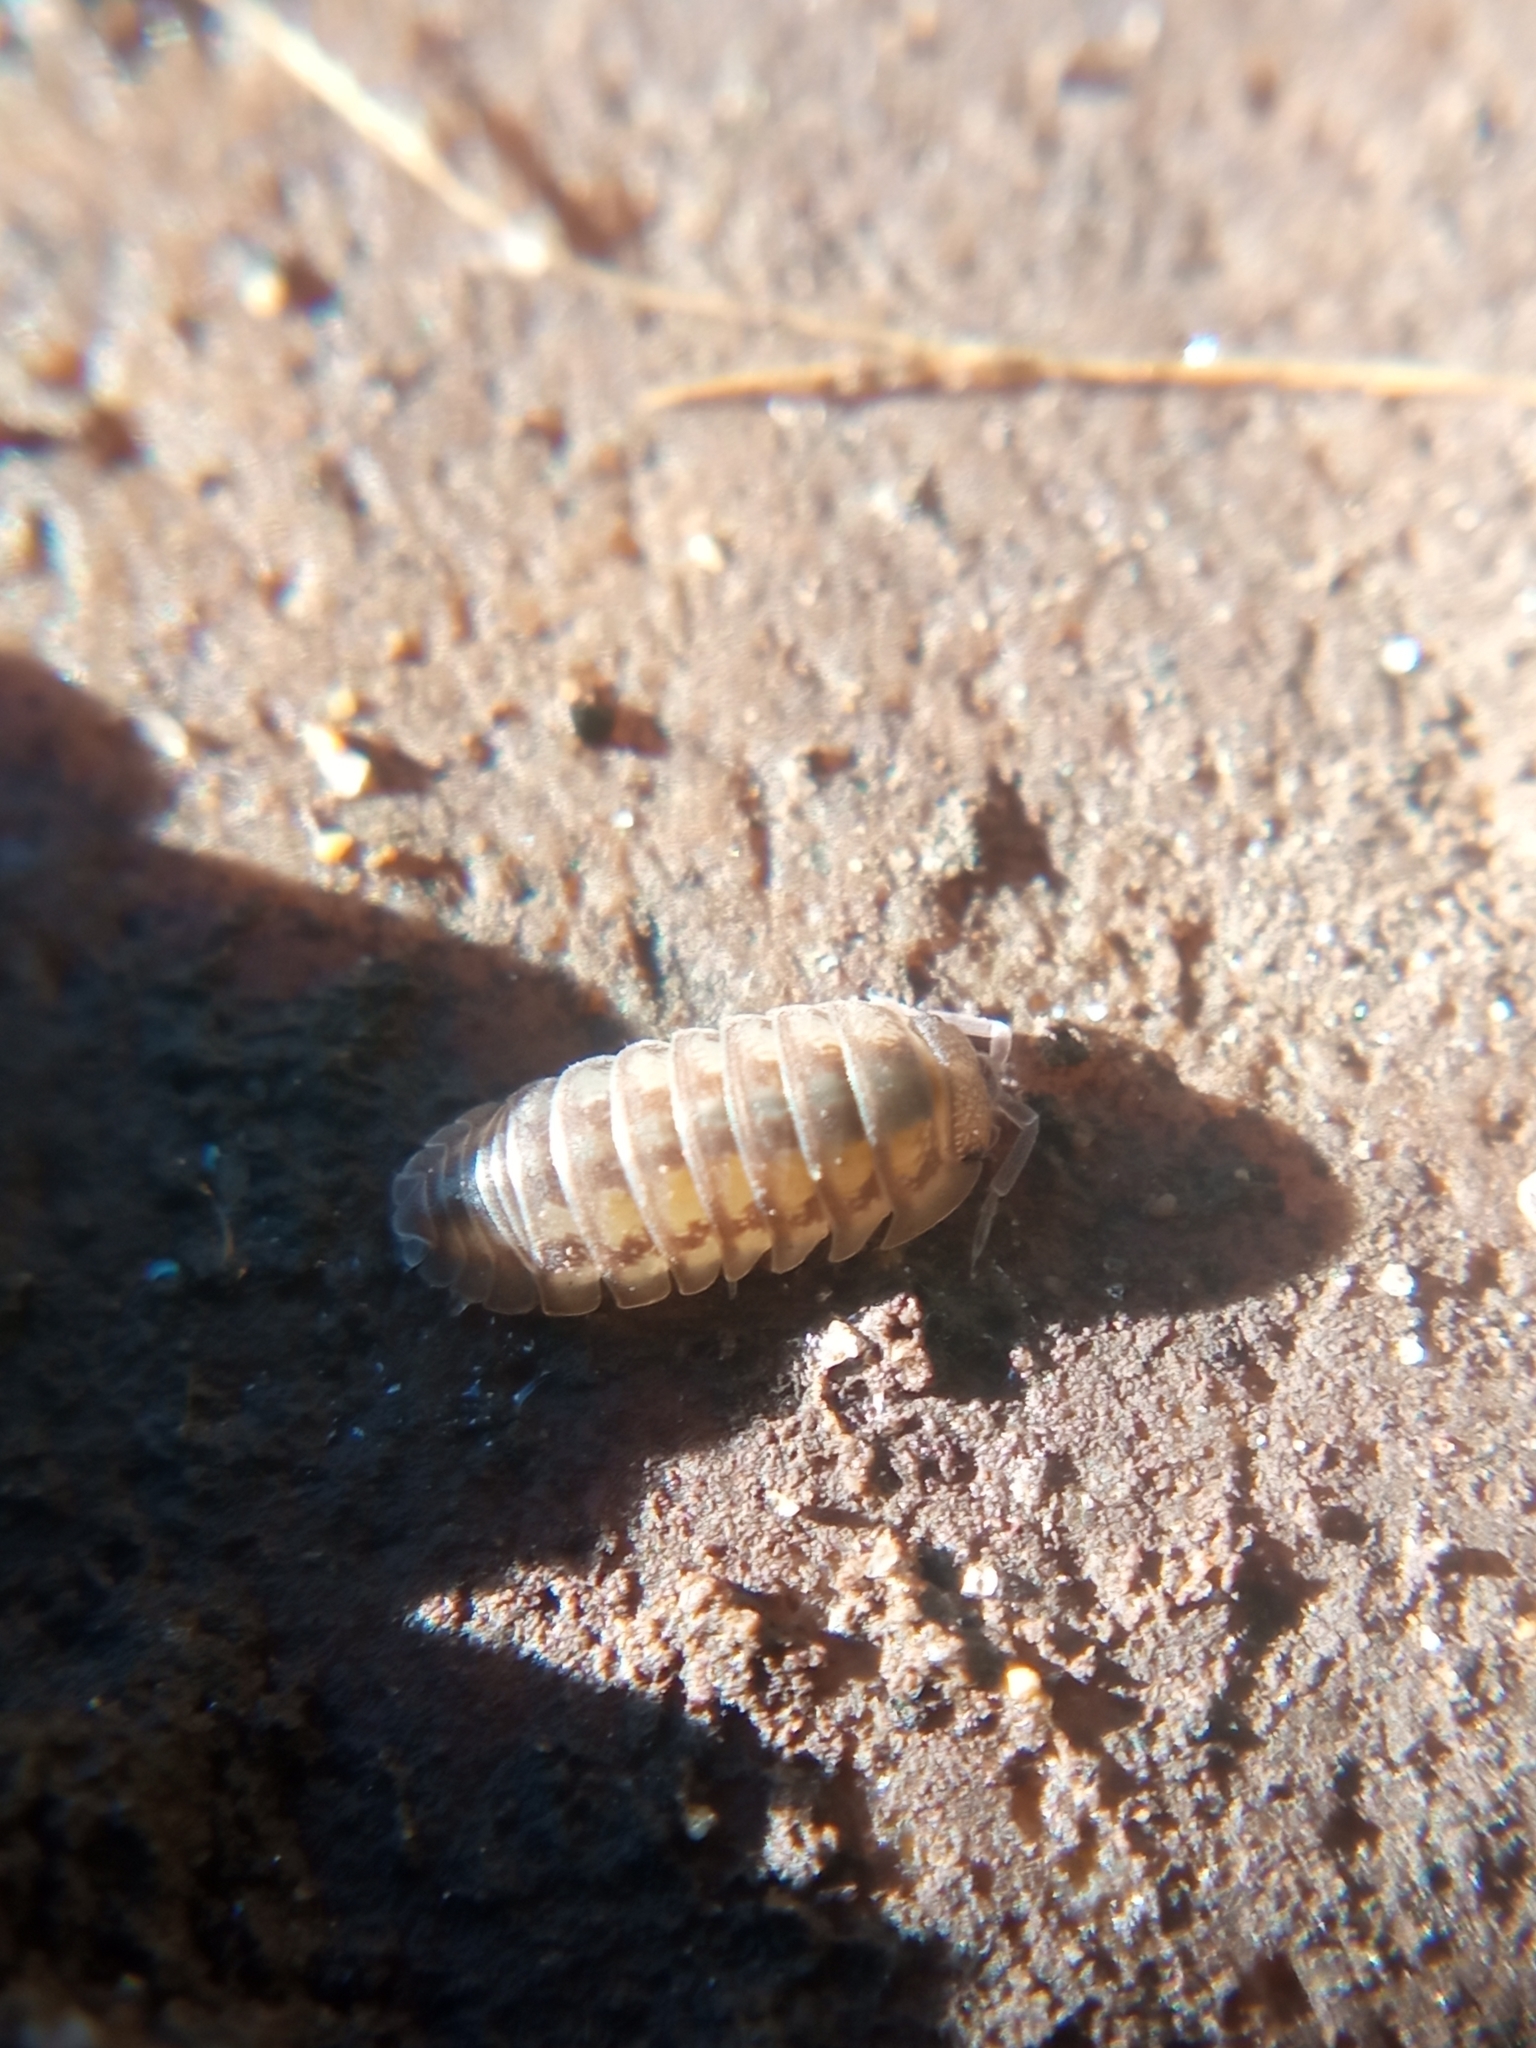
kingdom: Animalia
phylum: Arthropoda
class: Malacostraca
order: Isopoda
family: Armadillidiidae
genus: Armadillidium
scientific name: Armadillidium nasatum
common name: Isopod
